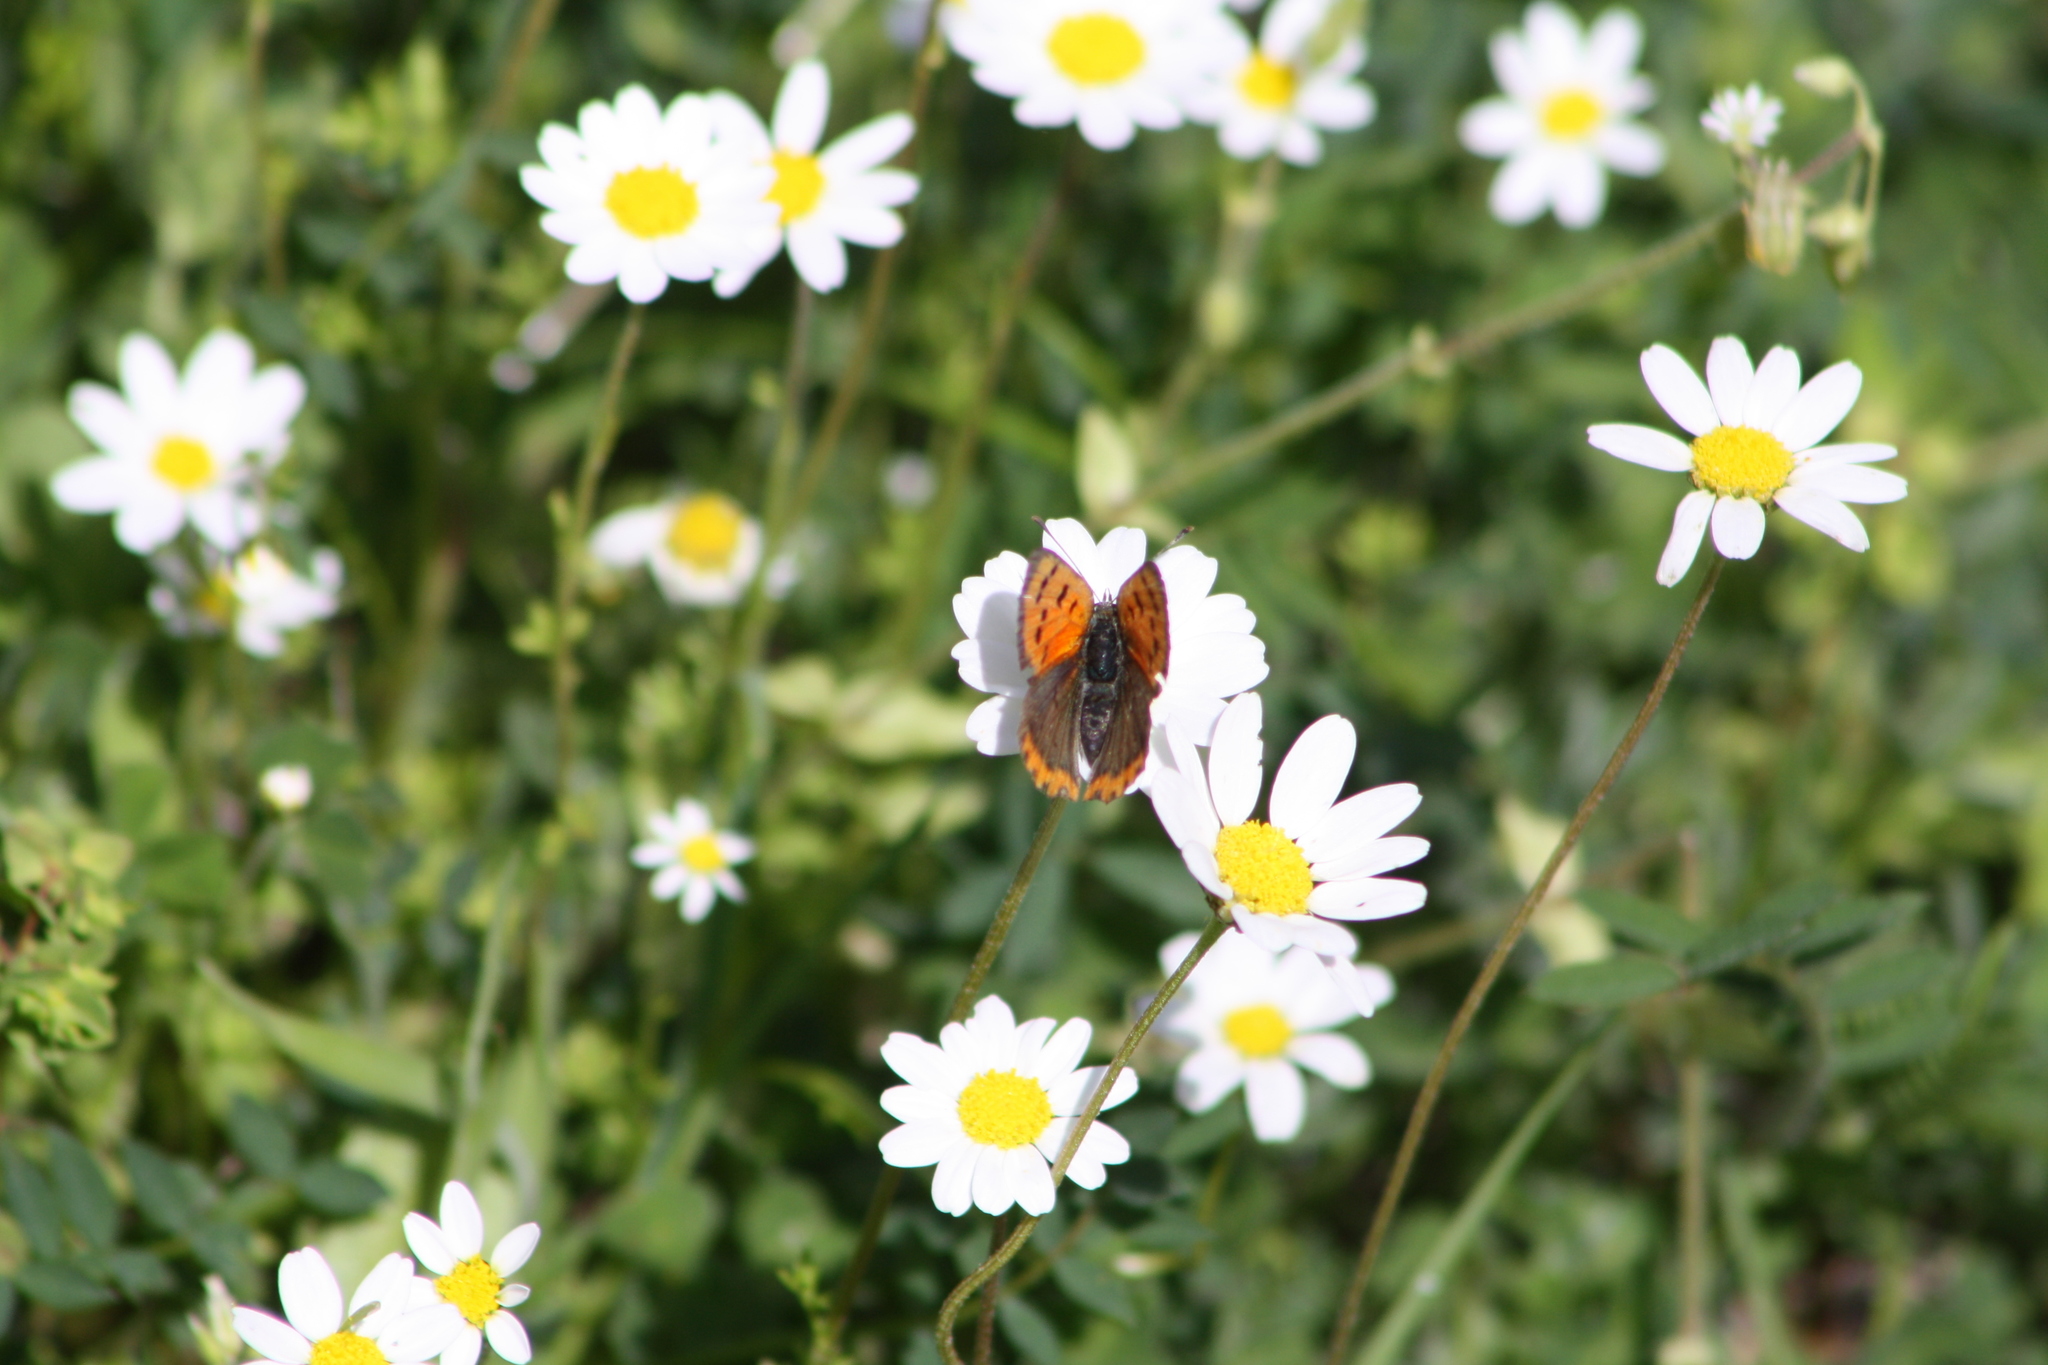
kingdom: Animalia
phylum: Arthropoda
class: Insecta
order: Lepidoptera
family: Lycaenidae
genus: Lycaena
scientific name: Lycaena phlaeas
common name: Small copper
